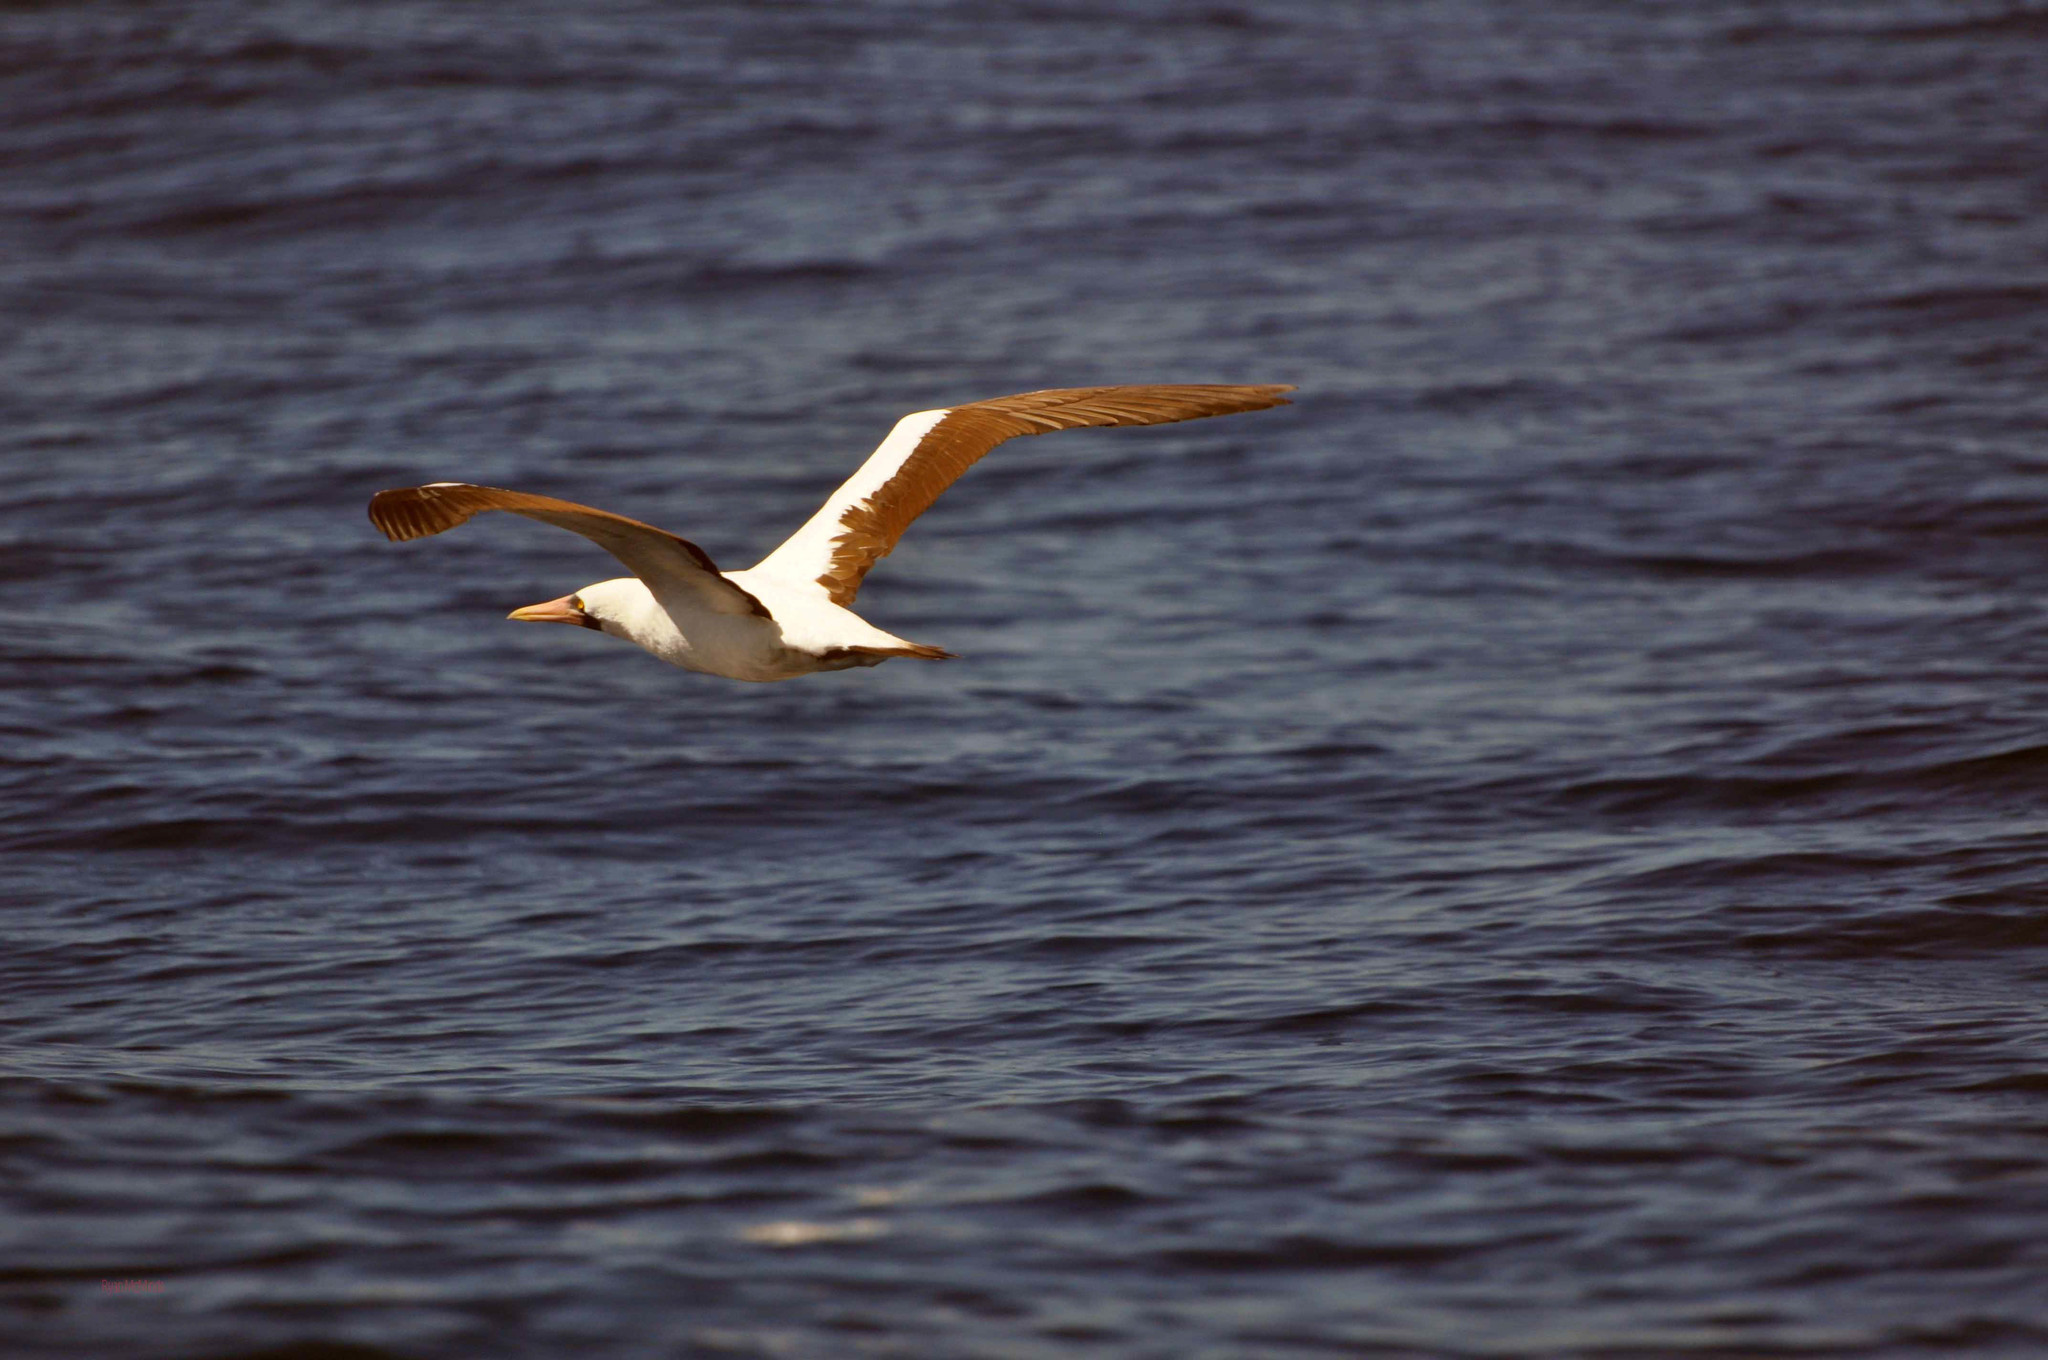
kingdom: Animalia
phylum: Chordata
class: Aves
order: Suliformes
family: Sulidae
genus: Sula
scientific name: Sula granti
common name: Nazca booby
